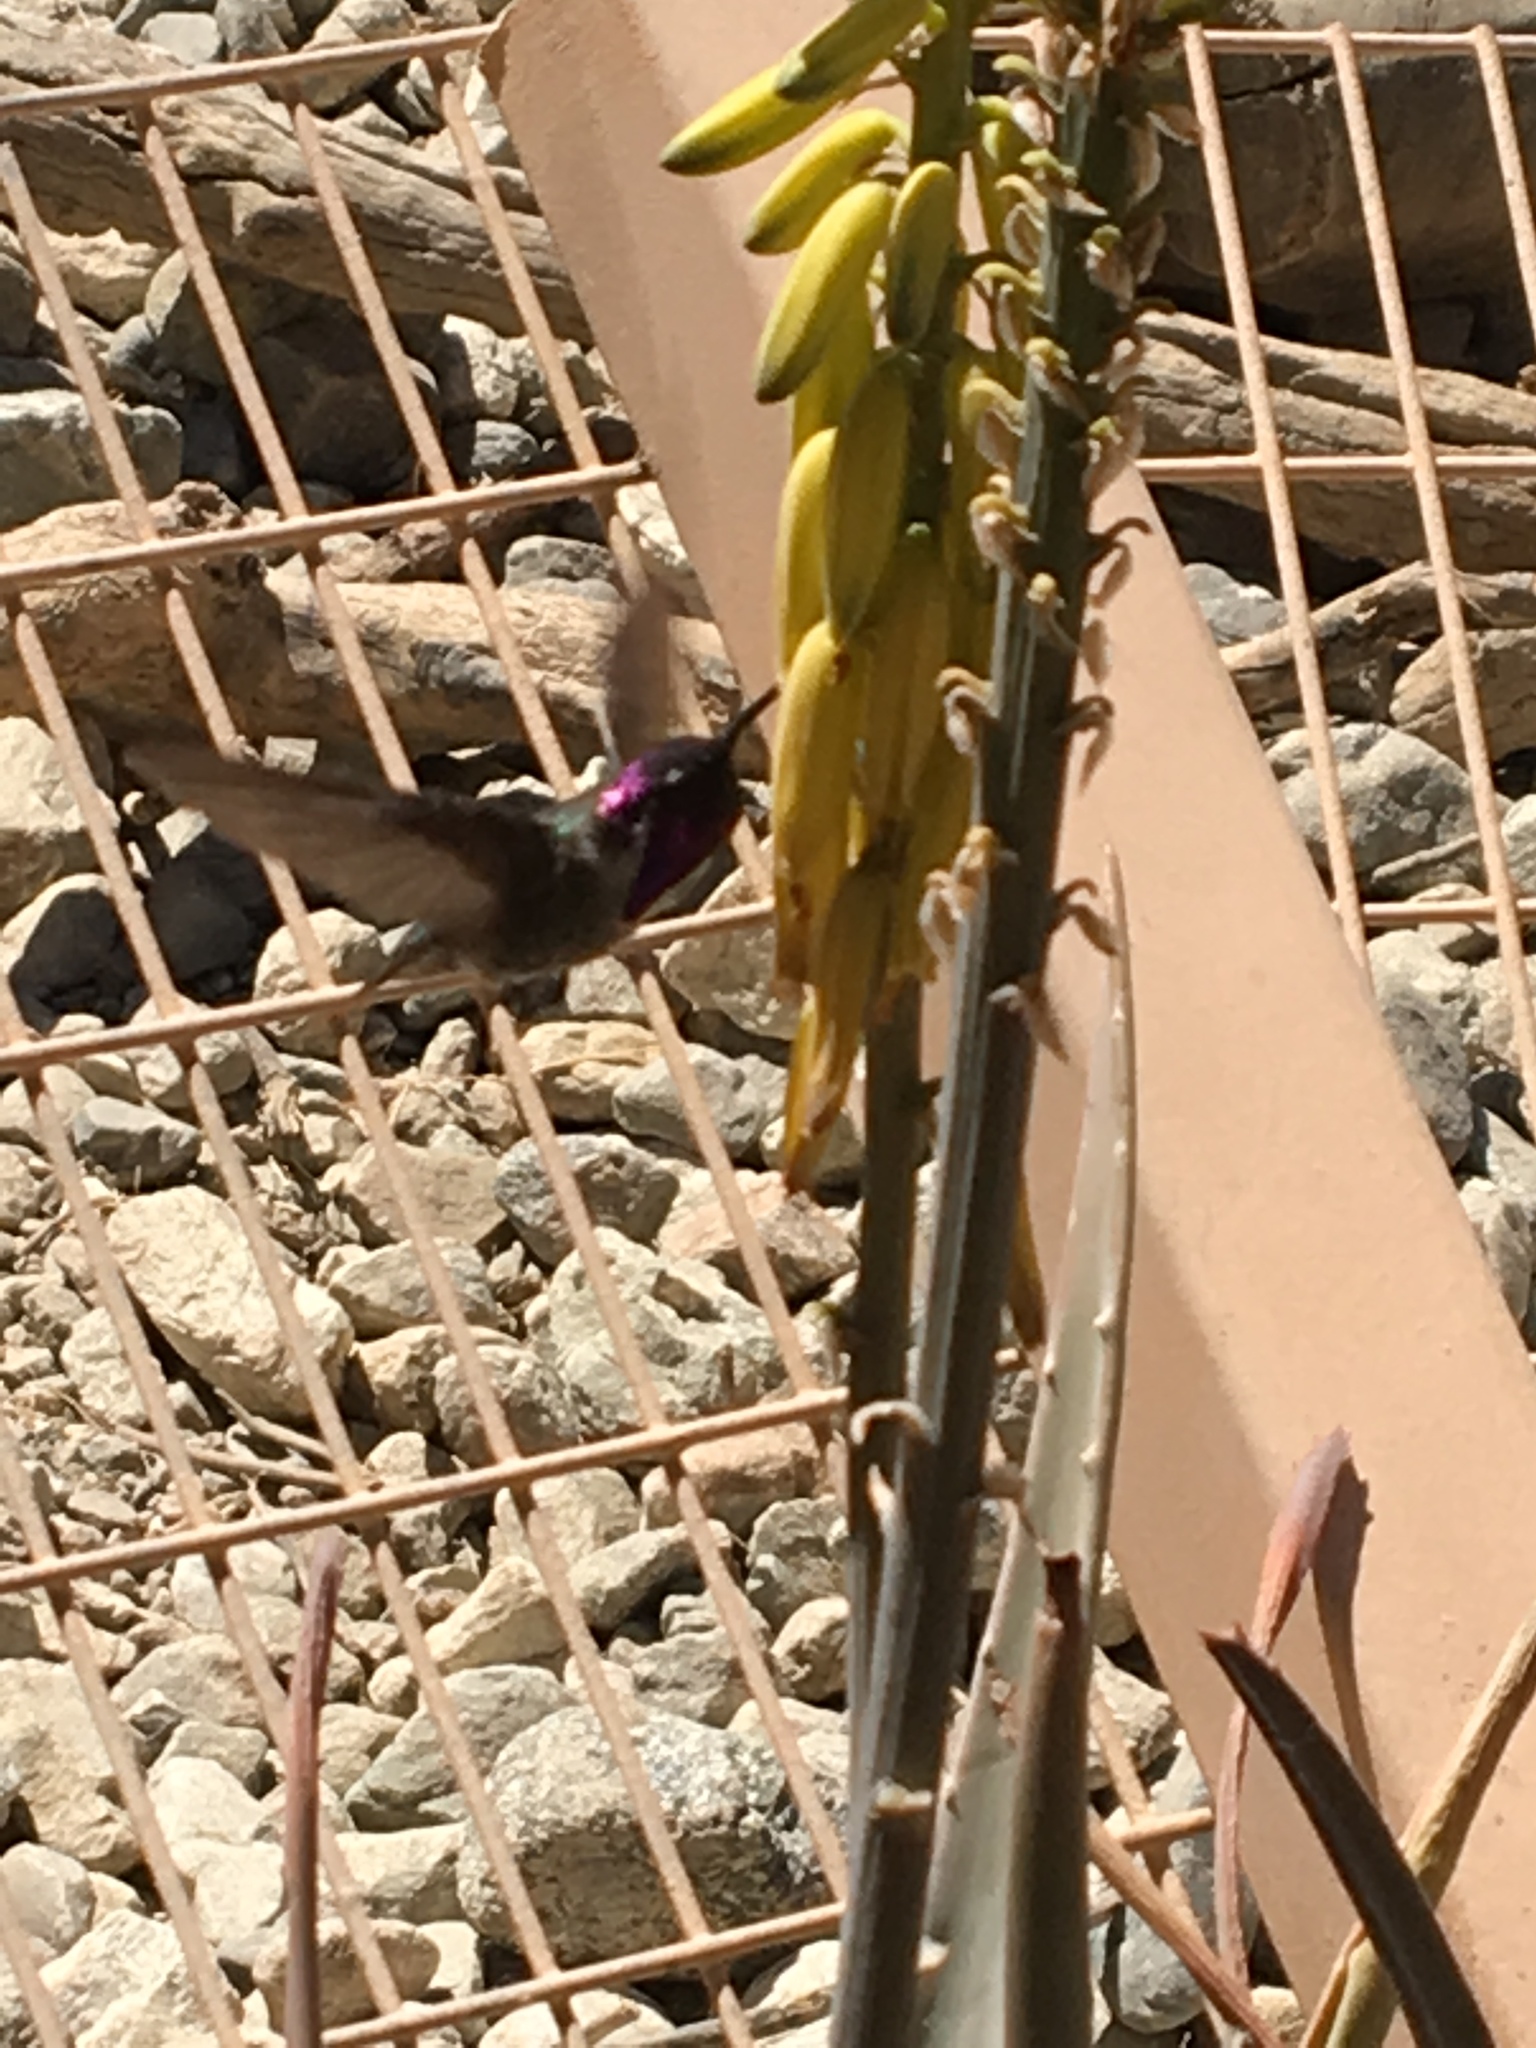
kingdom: Animalia
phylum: Chordata
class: Aves
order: Apodiformes
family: Trochilidae
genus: Calypte
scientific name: Calypte costae
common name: Costa's hummingbird
